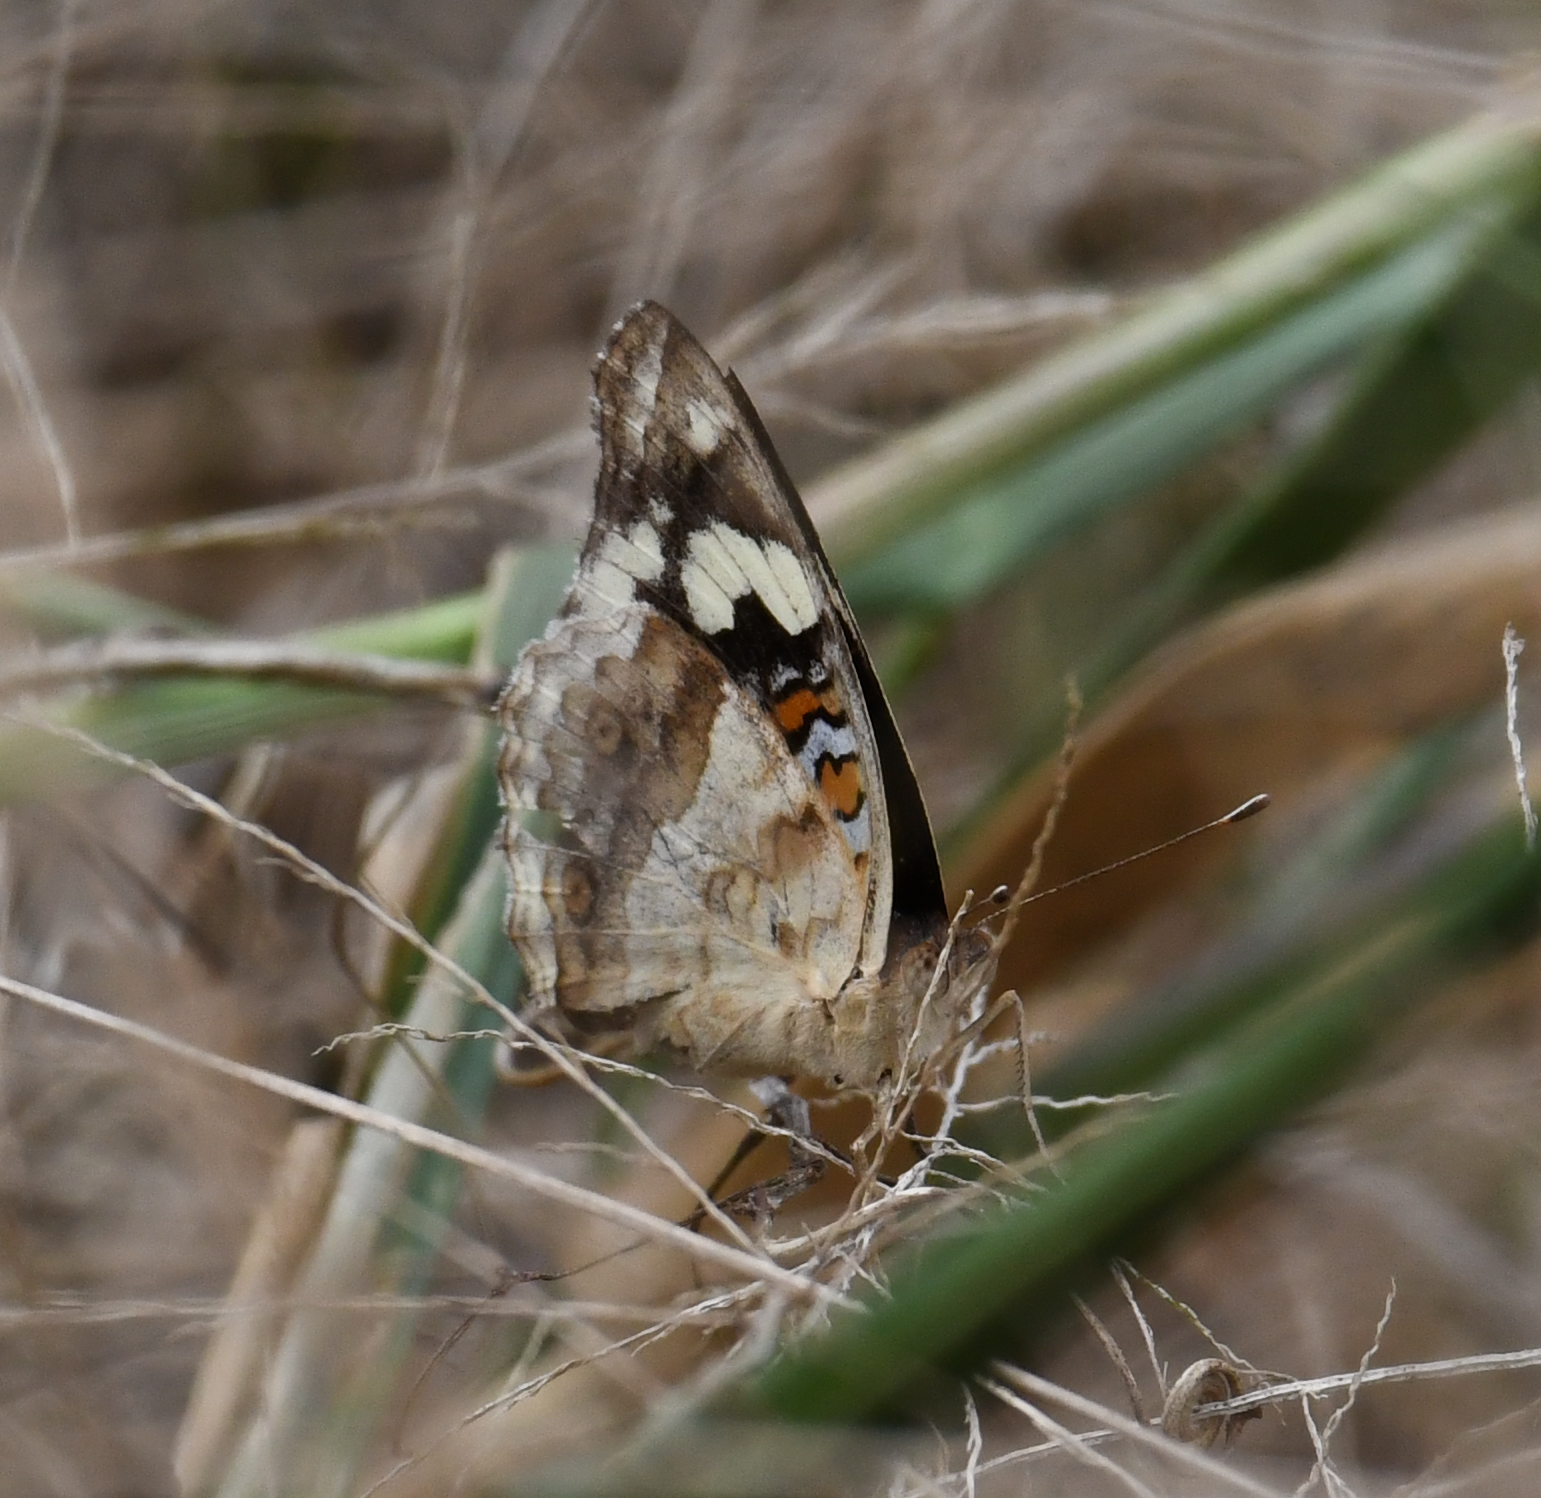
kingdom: Animalia
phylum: Arthropoda
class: Insecta
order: Lepidoptera
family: Nymphalidae
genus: Junonia
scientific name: Junonia oenone
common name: Dark blue pansy
